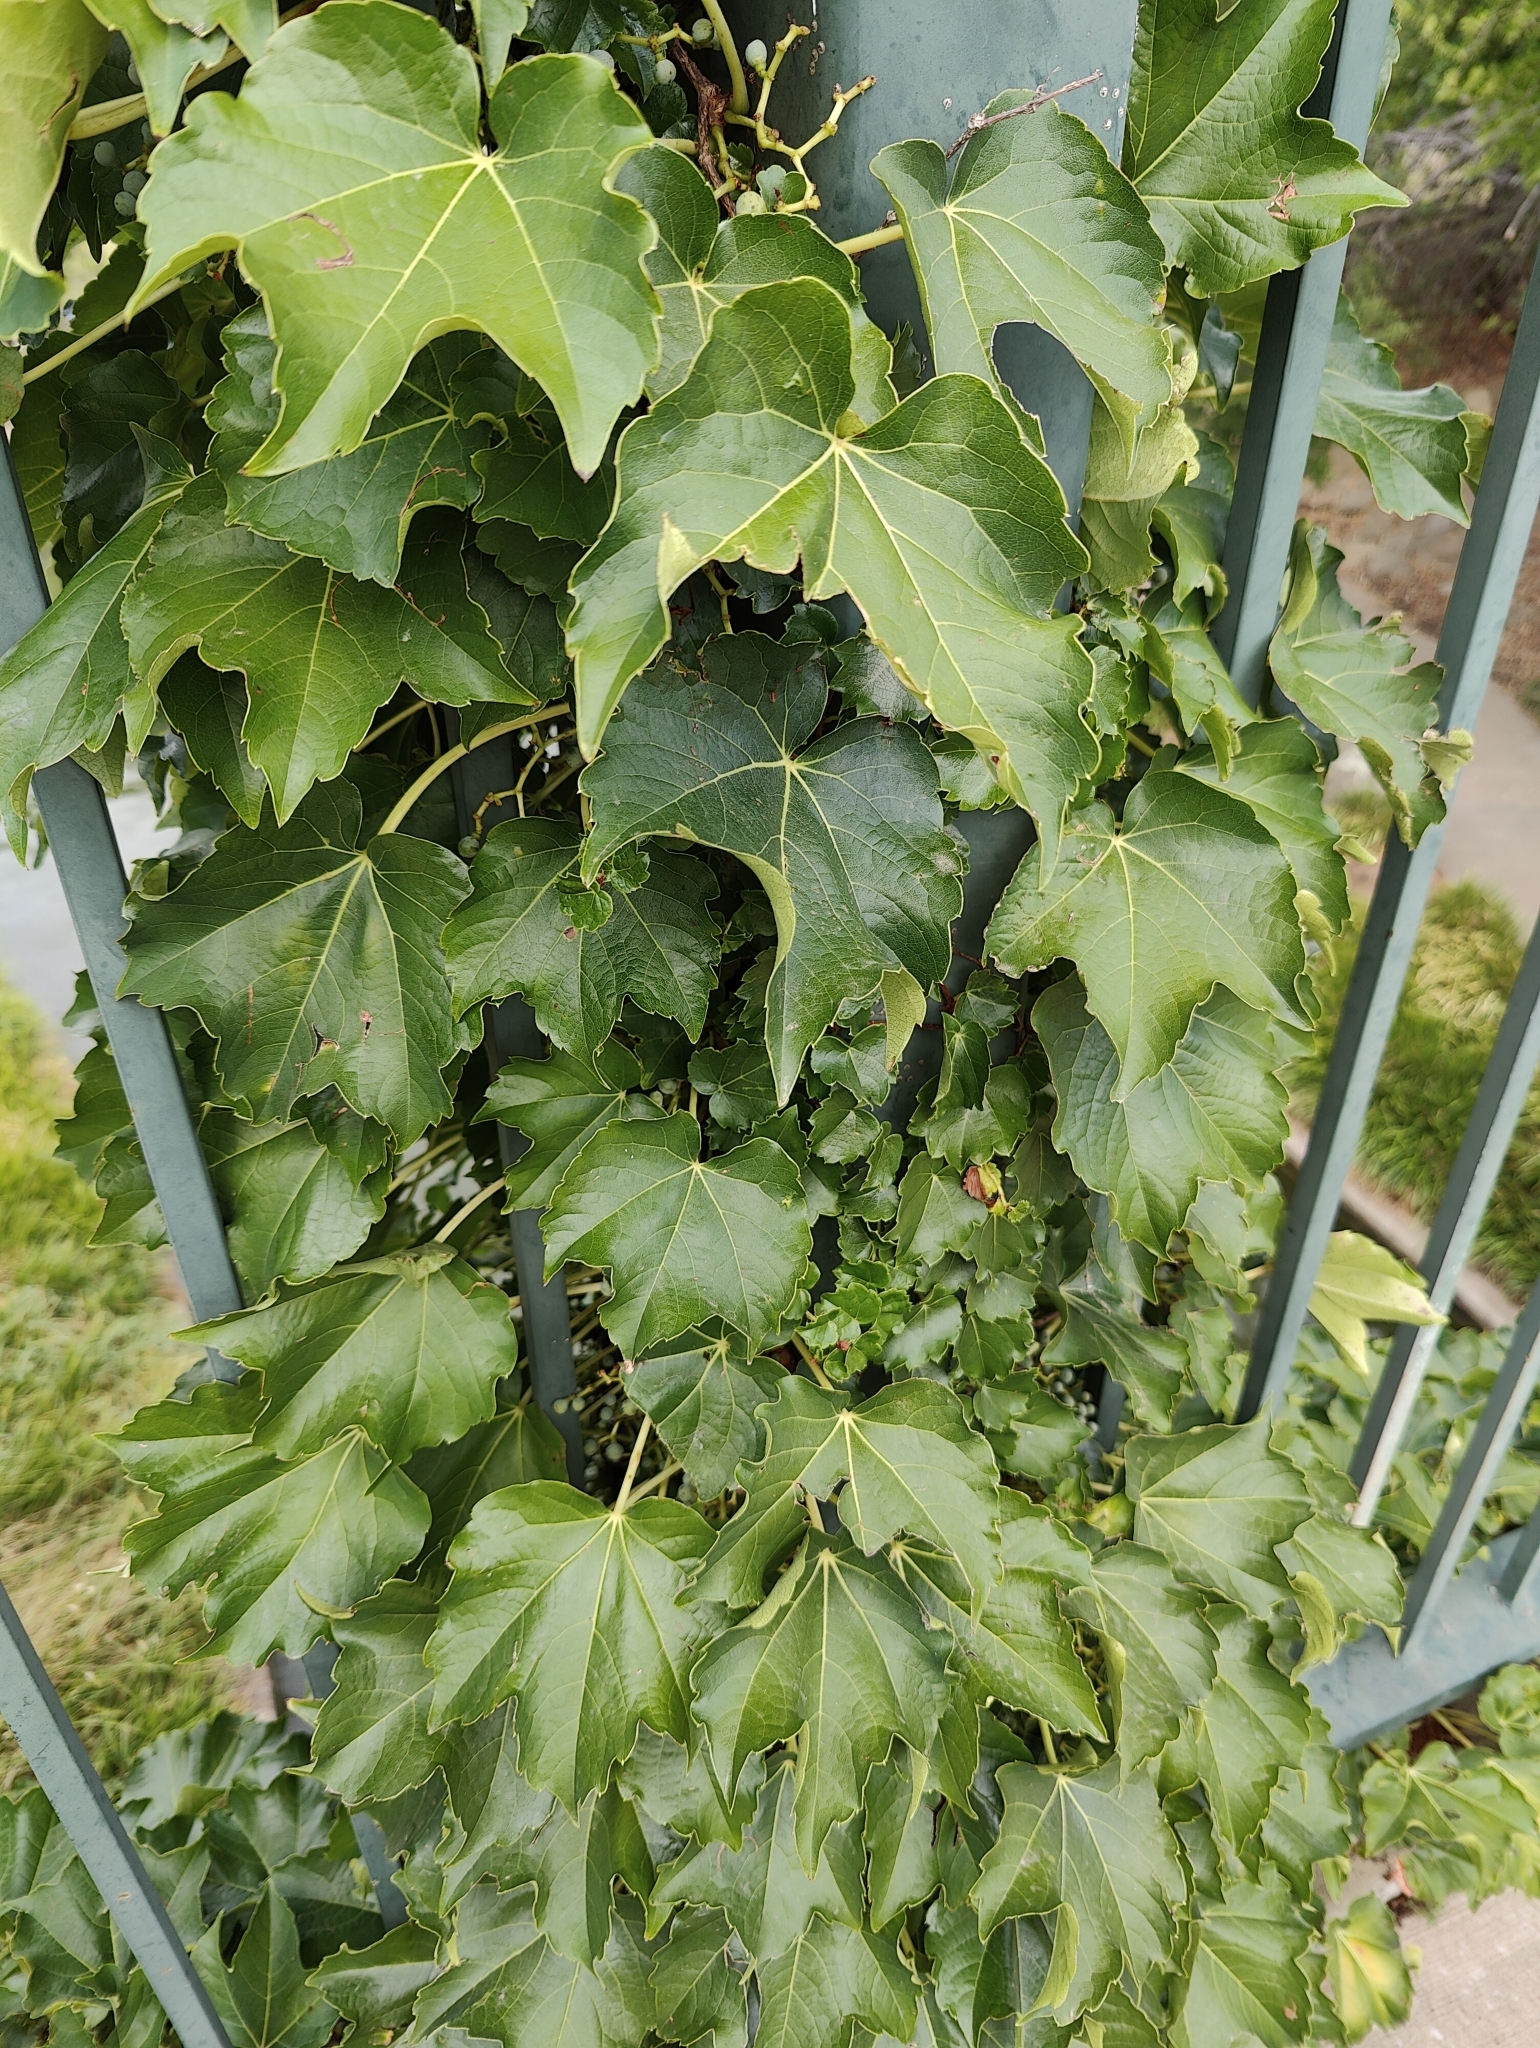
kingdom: Plantae
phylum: Tracheophyta
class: Magnoliopsida
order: Vitales
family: Vitaceae
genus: Parthenocissus
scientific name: Parthenocissus tricuspidata
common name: Boston ivy
